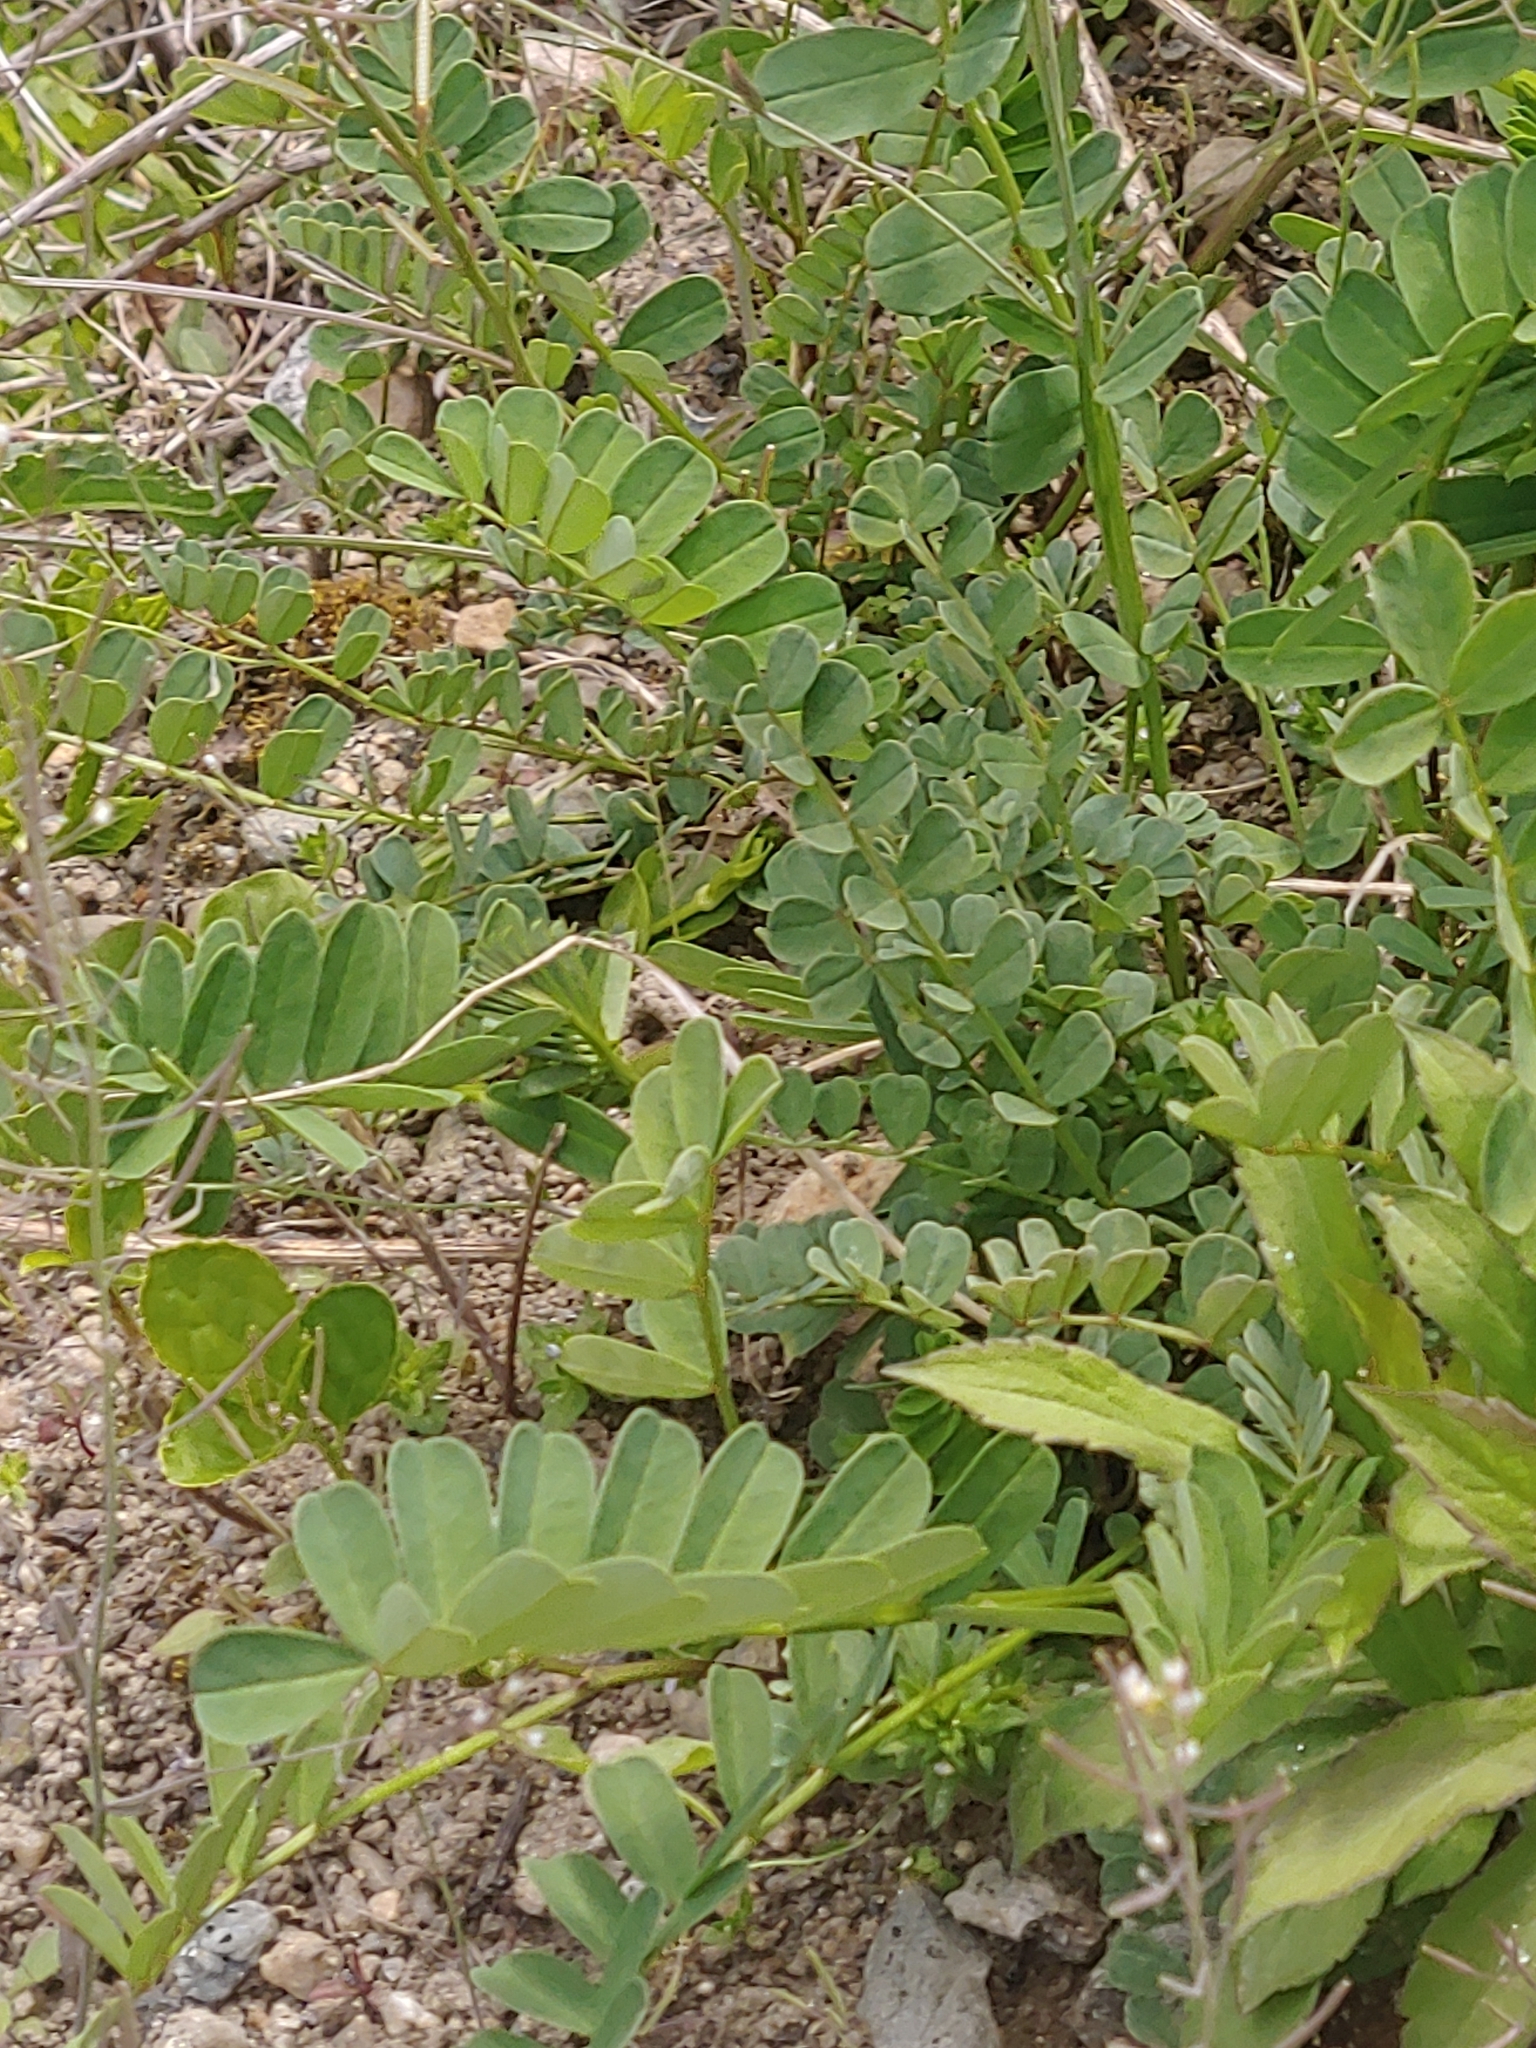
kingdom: Plantae
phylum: Tracheophyta
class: Magnoliopsida
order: Fabales
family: Fabaceae
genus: Coronilla
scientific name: Coronilla varia
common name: Crownvetch
